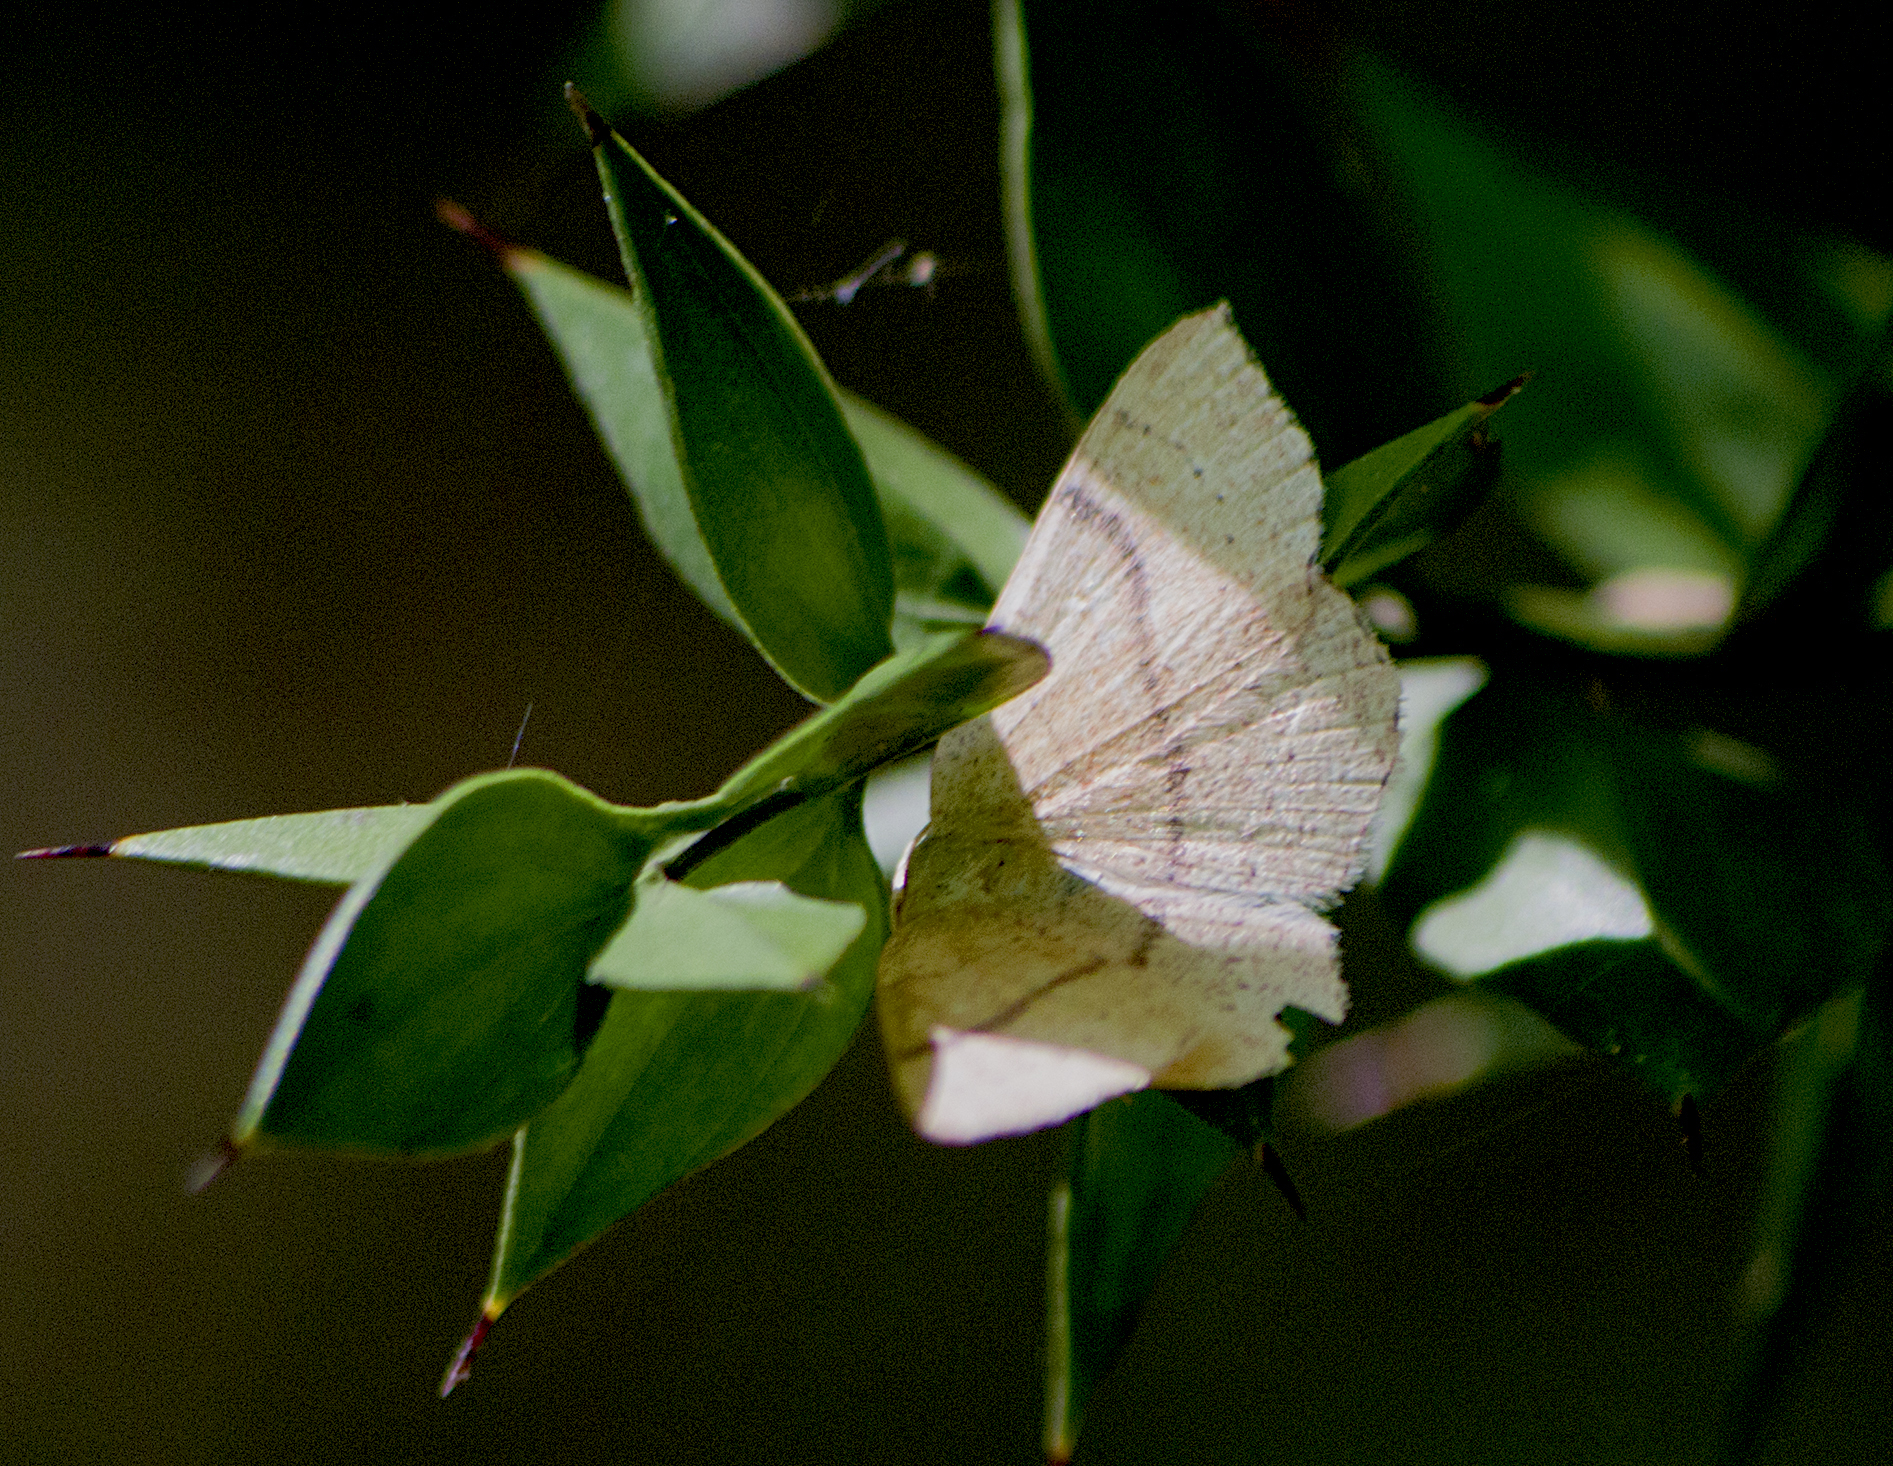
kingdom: Animalia
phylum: Arthropoda
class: Insecta
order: Lepidoptera
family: Geometridae
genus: Cyclophora
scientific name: Cyclophora punctaria
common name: Maiden's blush
